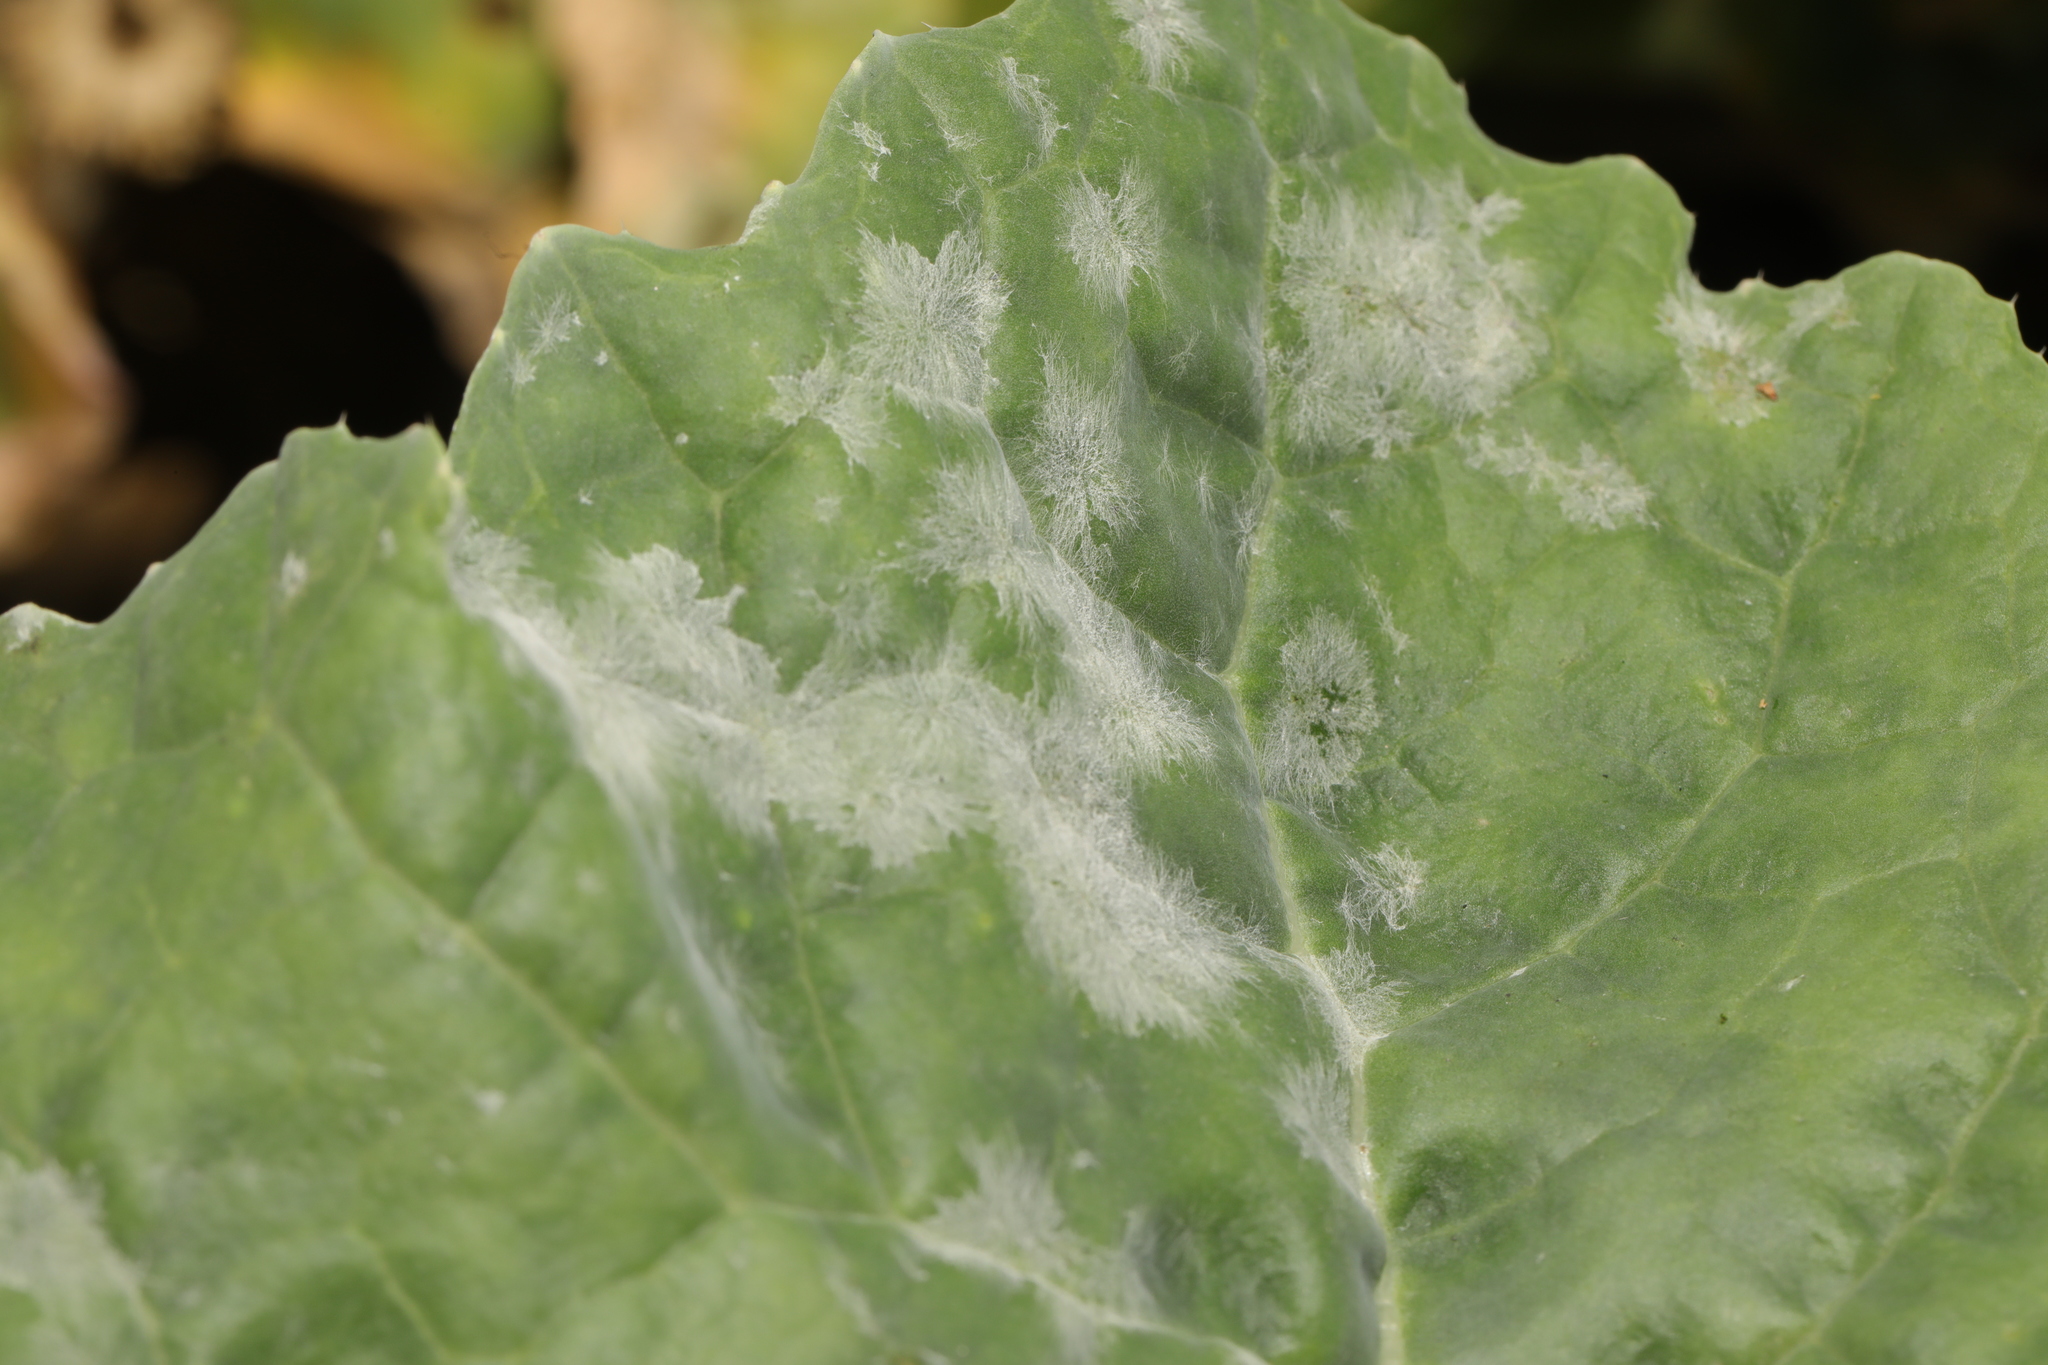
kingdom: Fungi
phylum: Ascomycota
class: Leotiomycetes
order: Helotiales
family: Erysiphaceae
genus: Erysiphe
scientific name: Erysiphe cruciferarum
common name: Brassica powdery mildew
